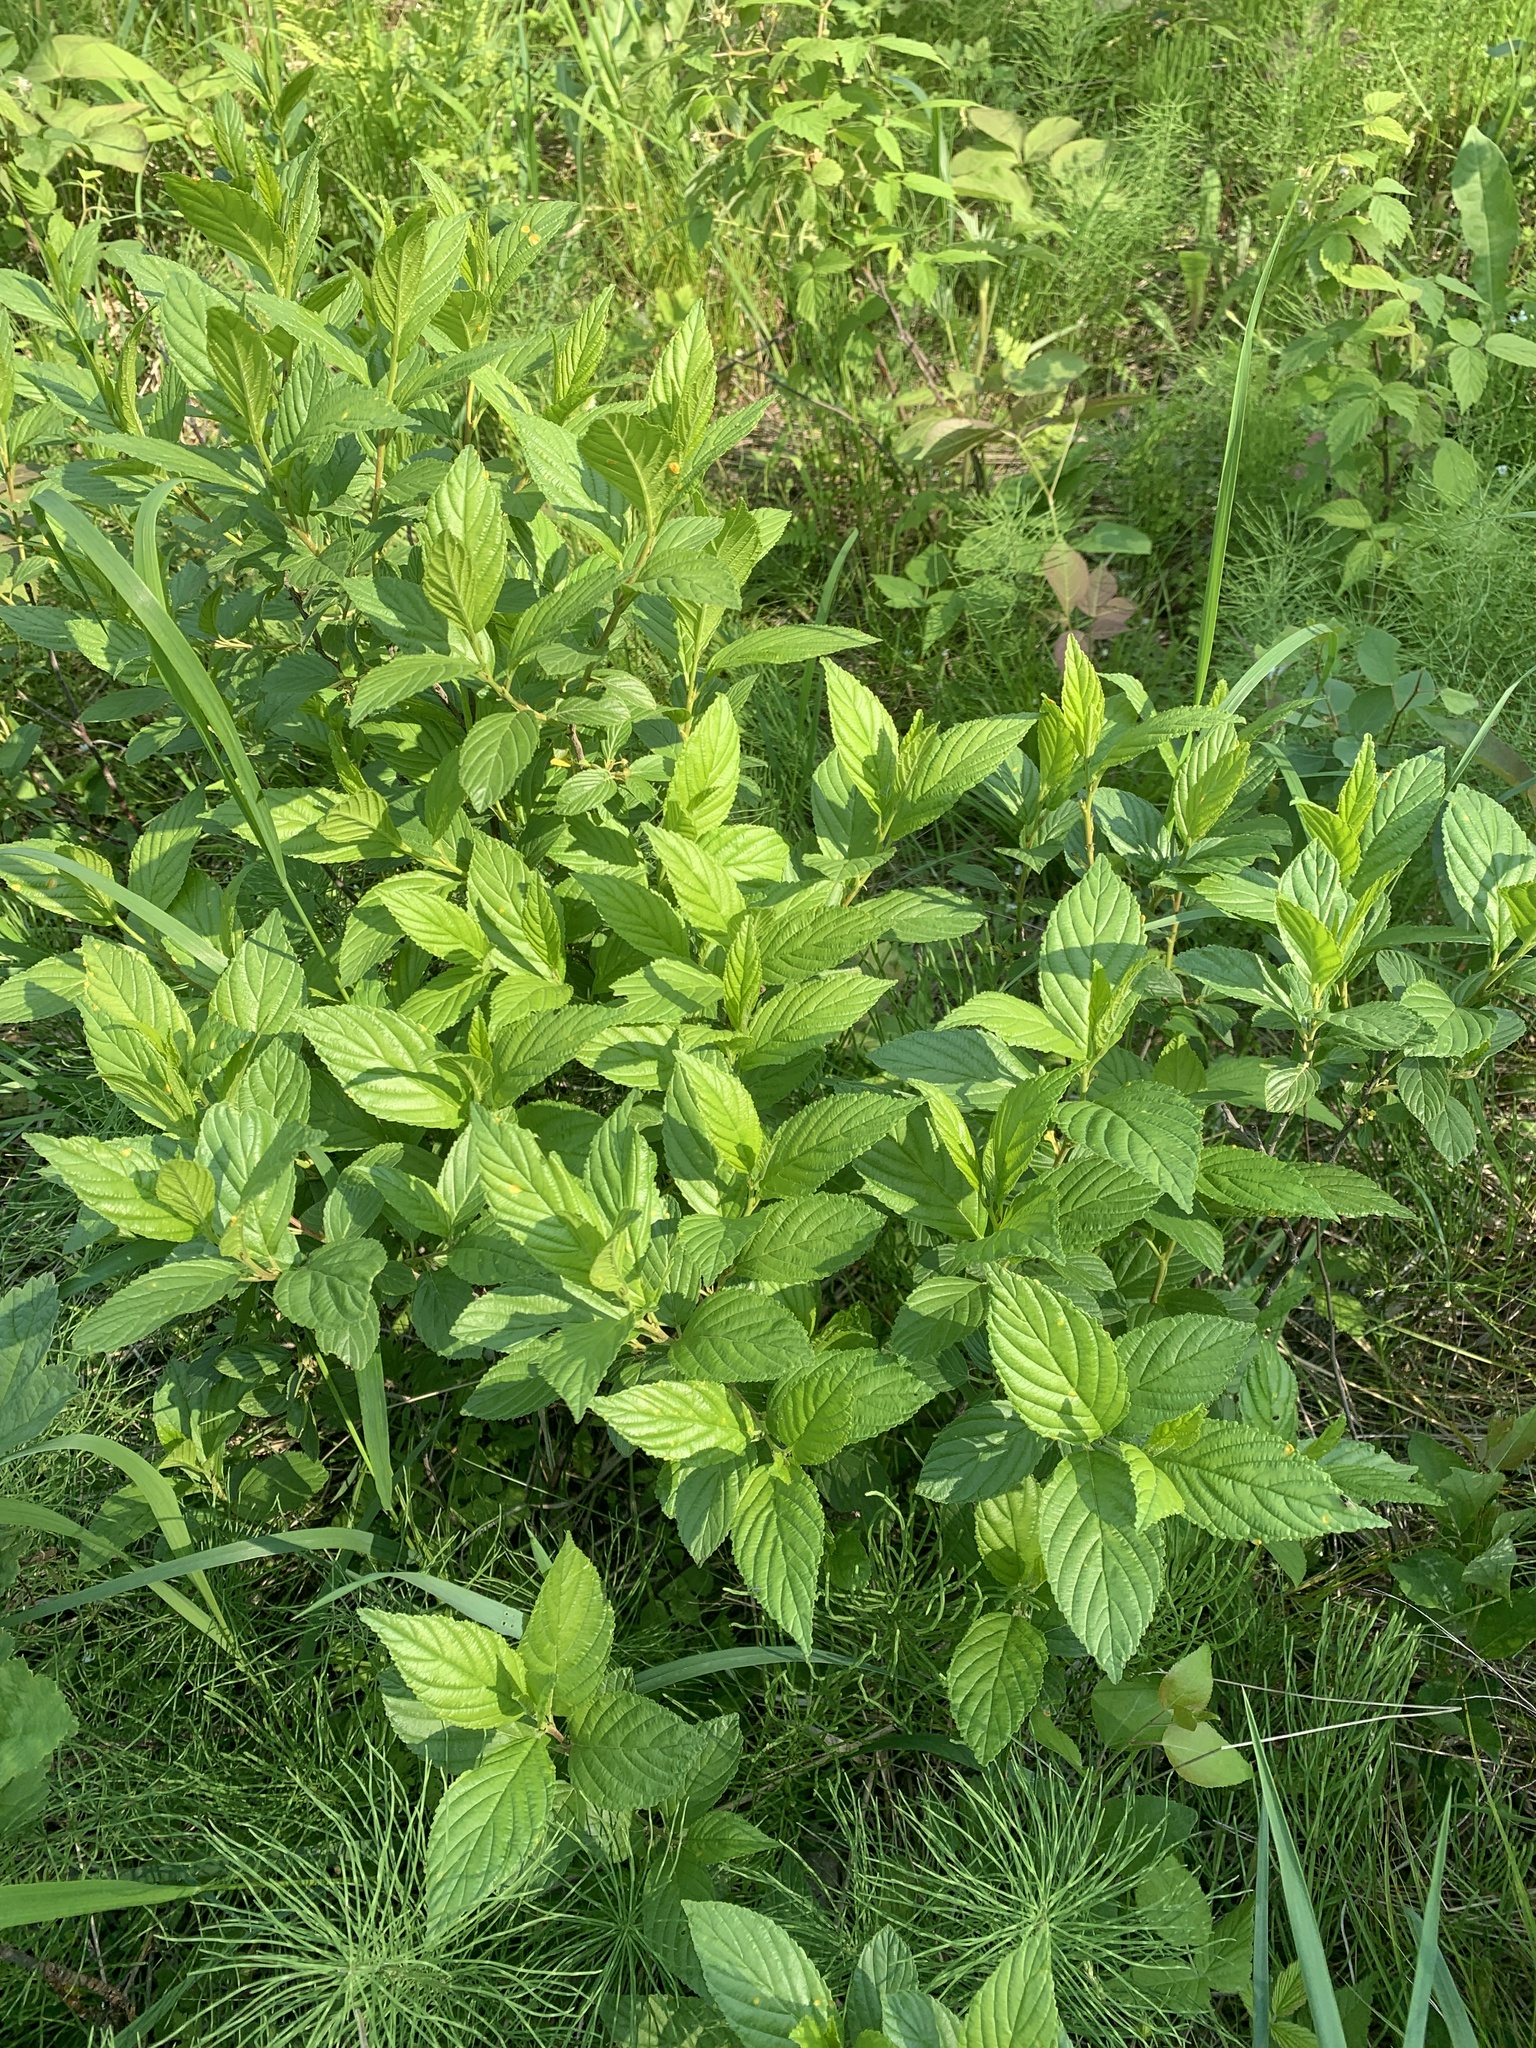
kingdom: Plantae
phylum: Tracheophyta
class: Magnoliopsida
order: Rosales
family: Rhamnaceae
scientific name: Rhamnaceae
